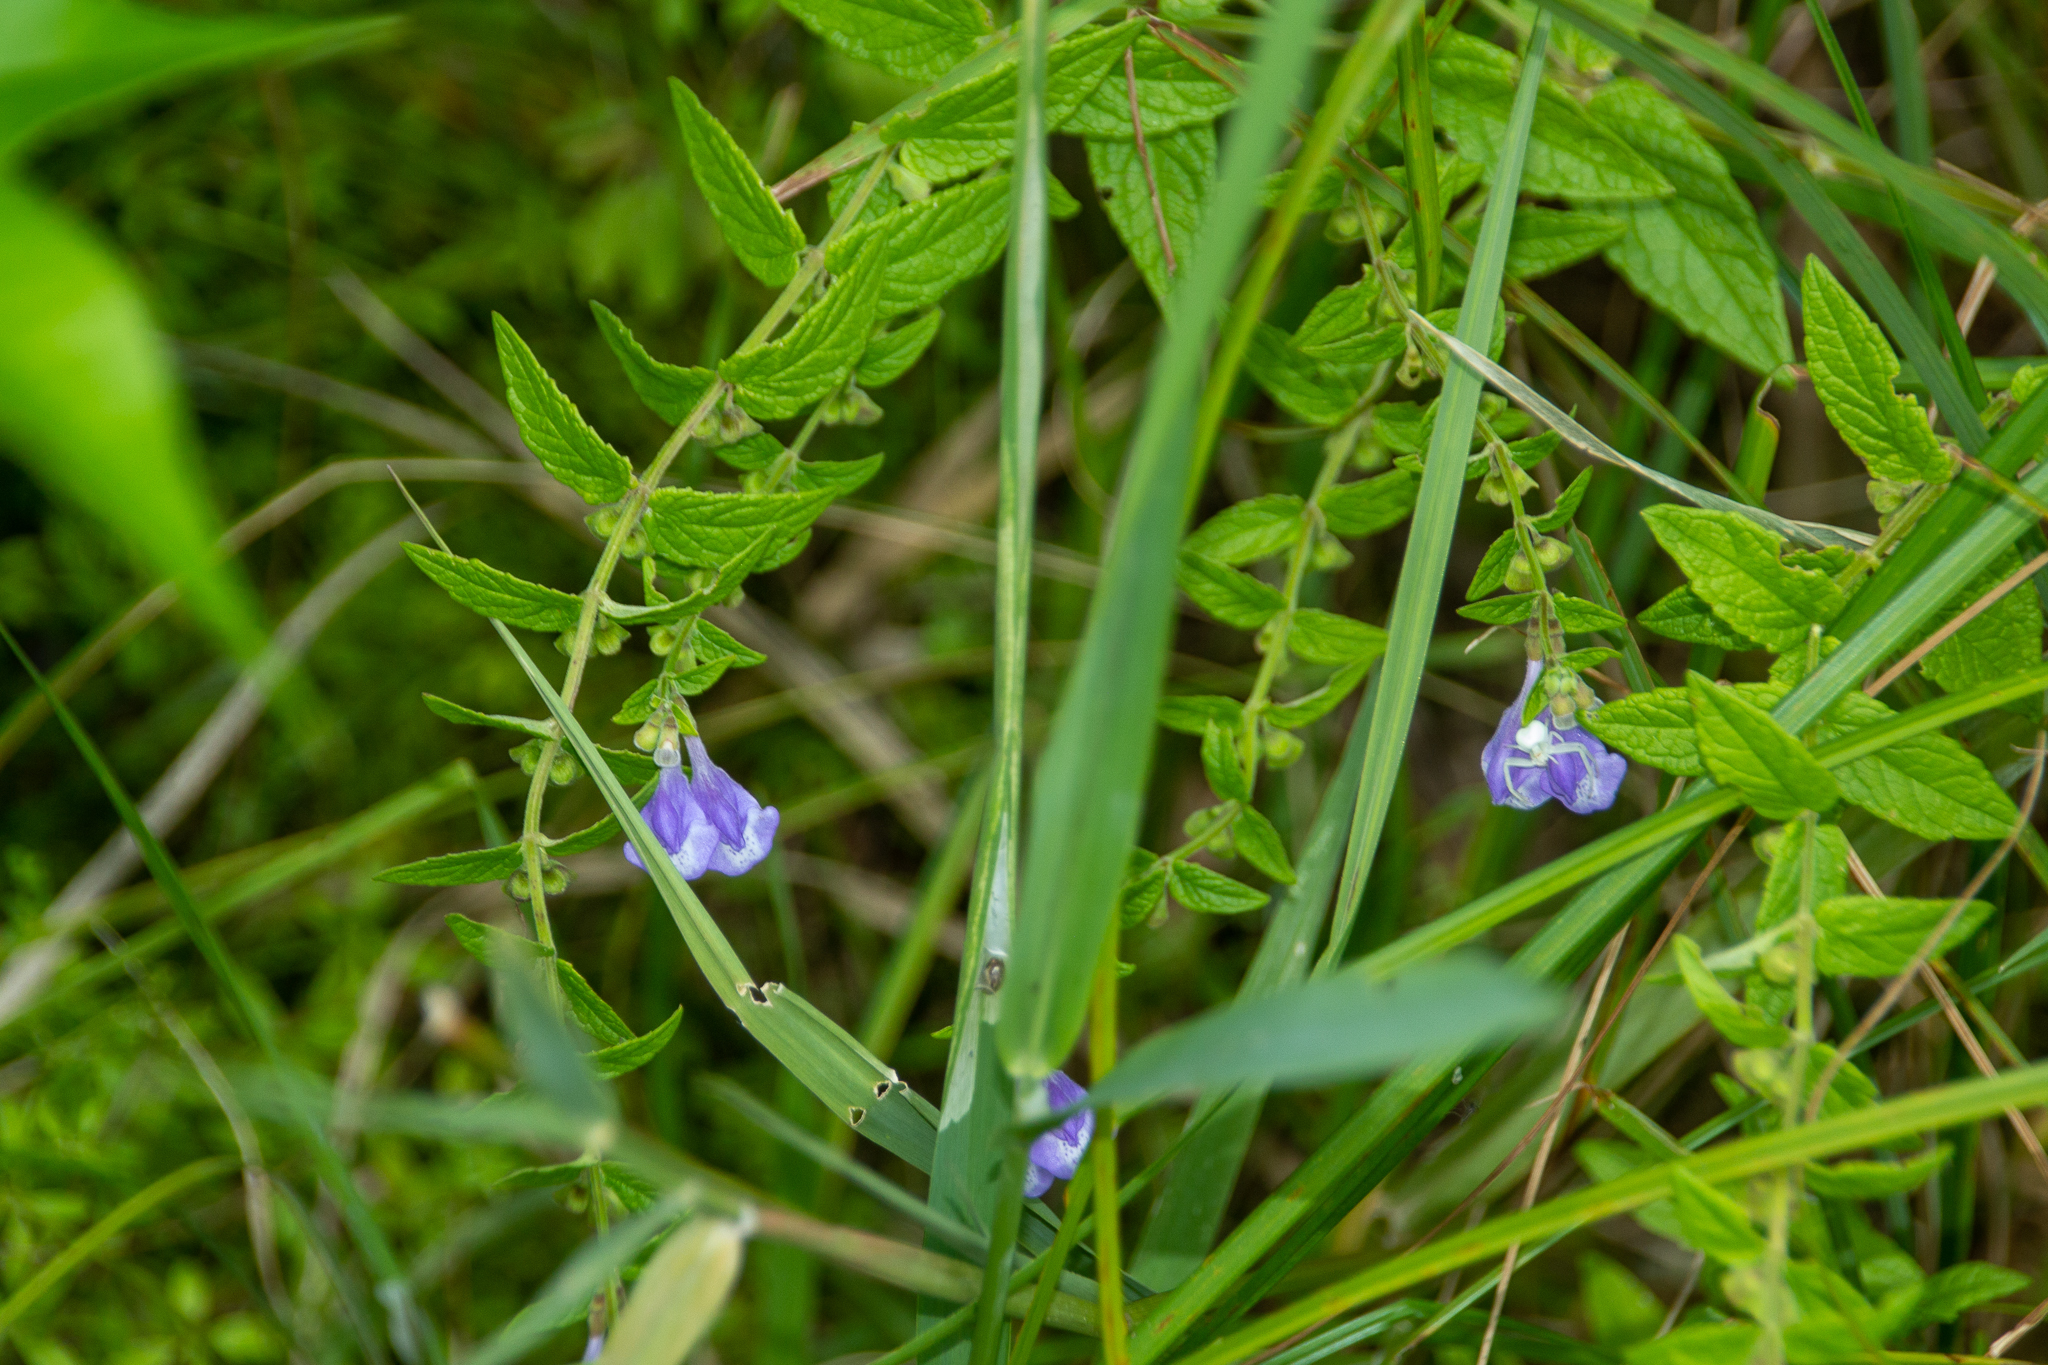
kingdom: Plantae
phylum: Tracheophyta
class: Magnoliopsida
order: Lamiales
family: Lamiaceae
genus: Scutellaria
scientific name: Scutellaria galericulata
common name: Skullcap
